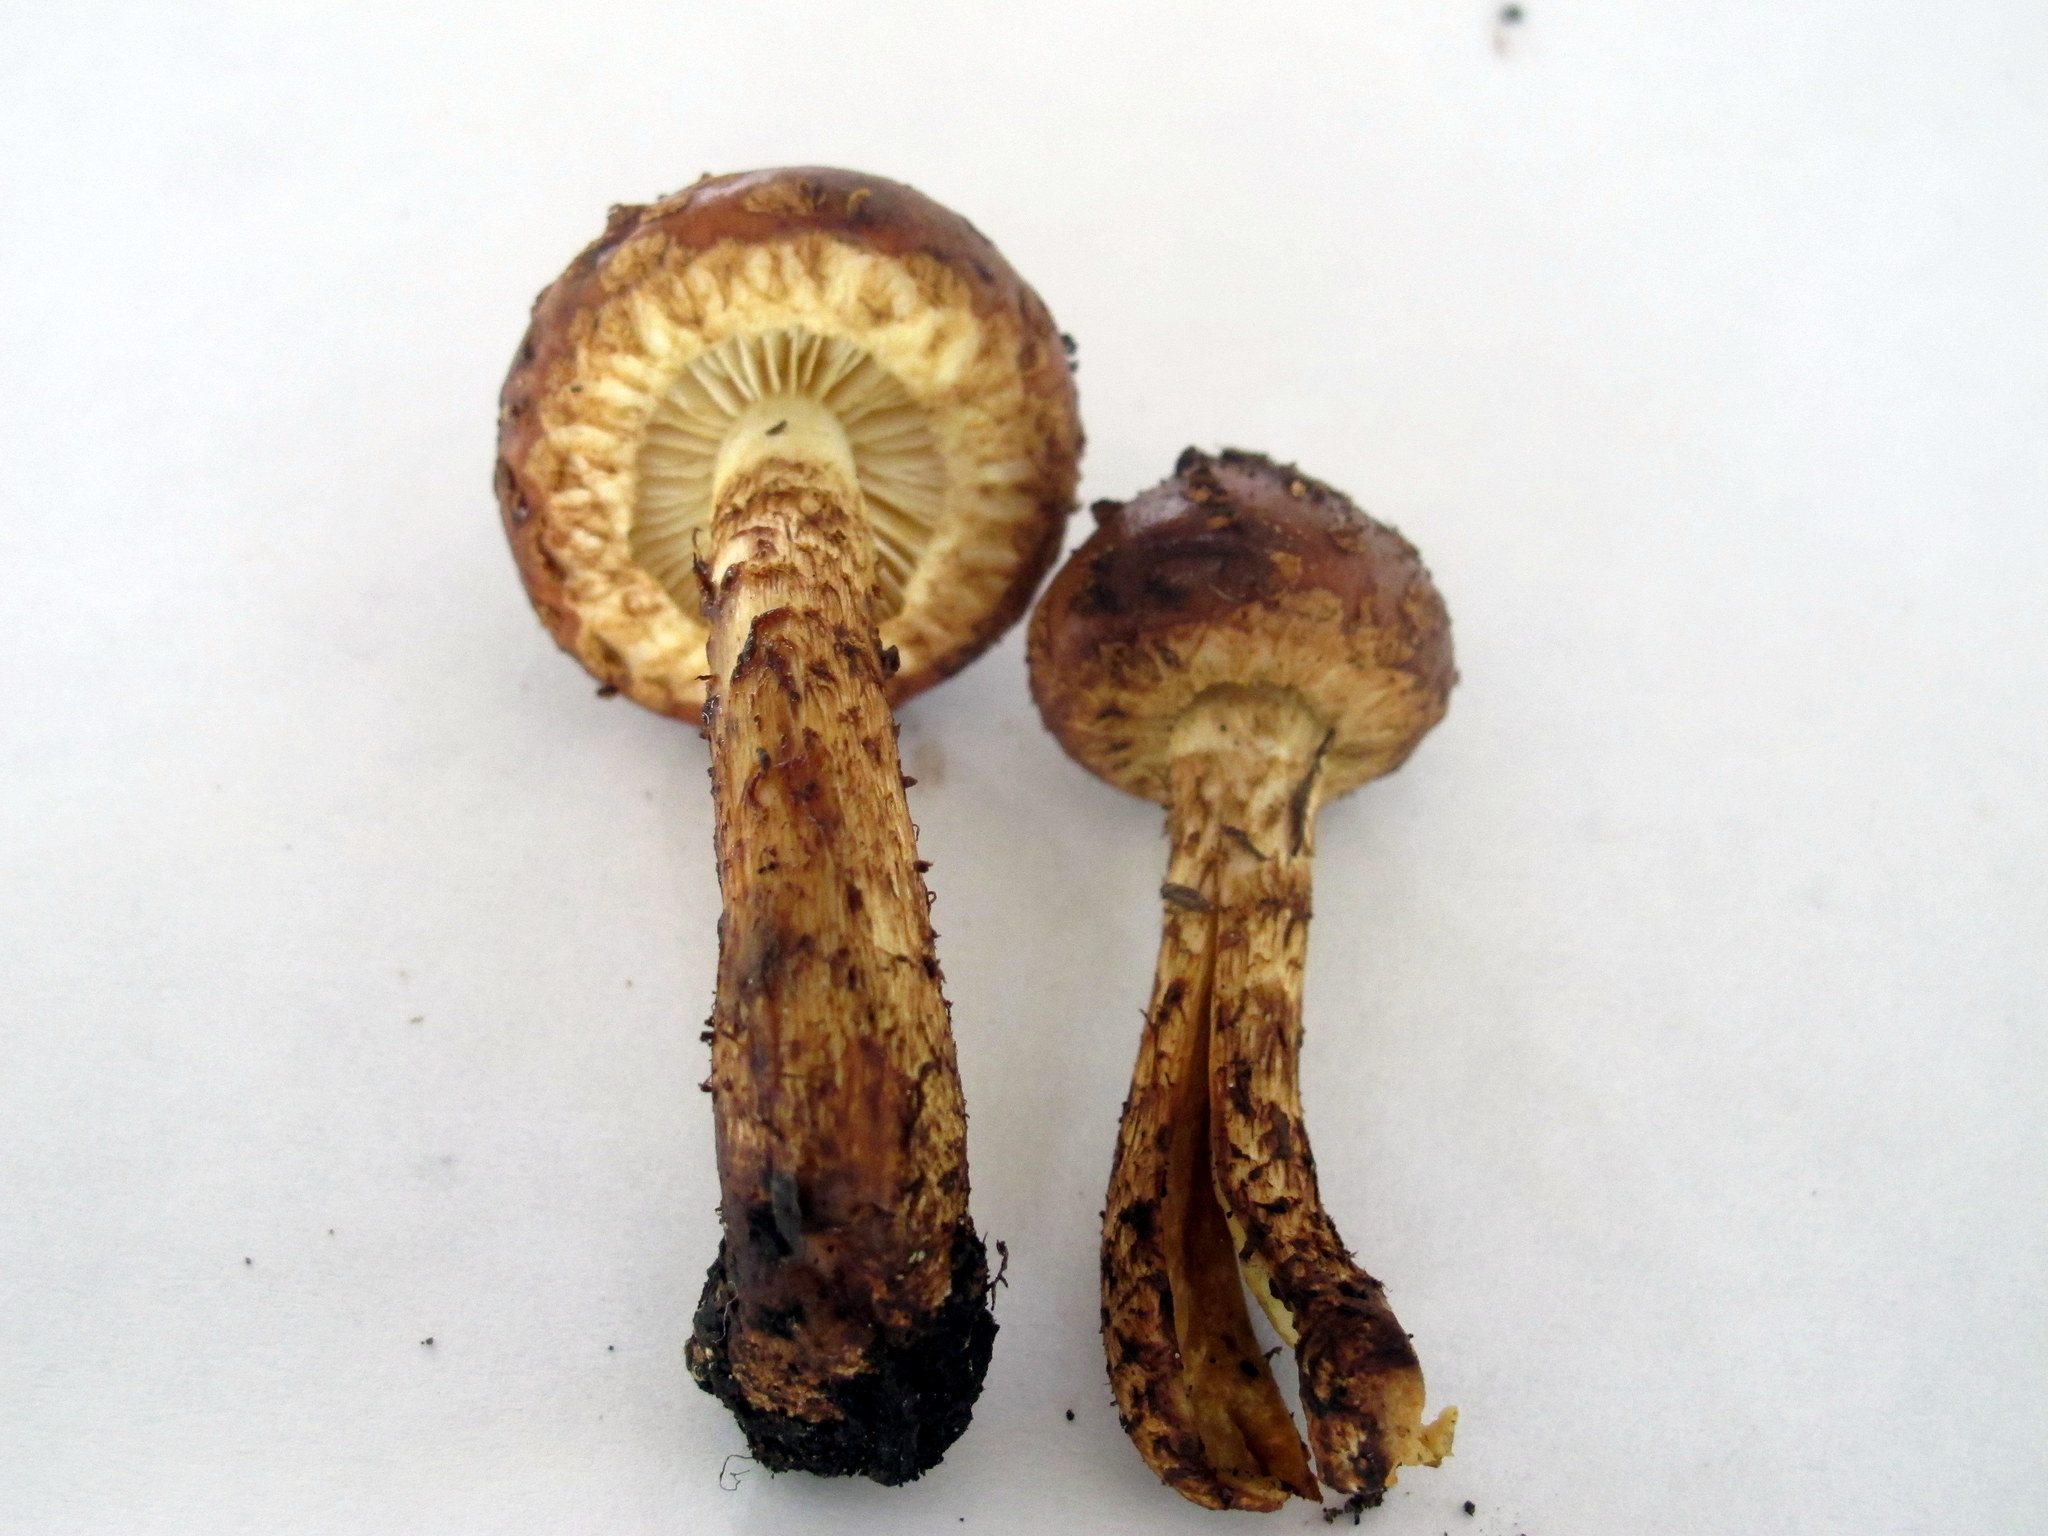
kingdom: Fungi
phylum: Basidiomycota
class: Agaricomycetes
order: Agaricales
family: Tubariaceae
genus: Hemistropharia
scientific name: Hemistropharia albocrenulata
